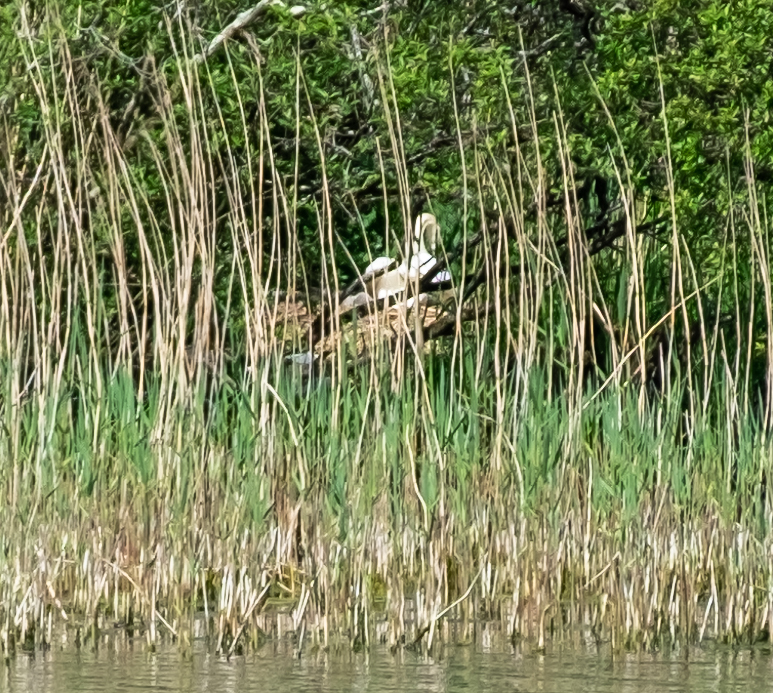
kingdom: Animalia
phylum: Chordata
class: Aves
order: Anseriformes
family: Anatidae
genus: Cygnus
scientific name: Cygnus olor
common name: Mute swan
